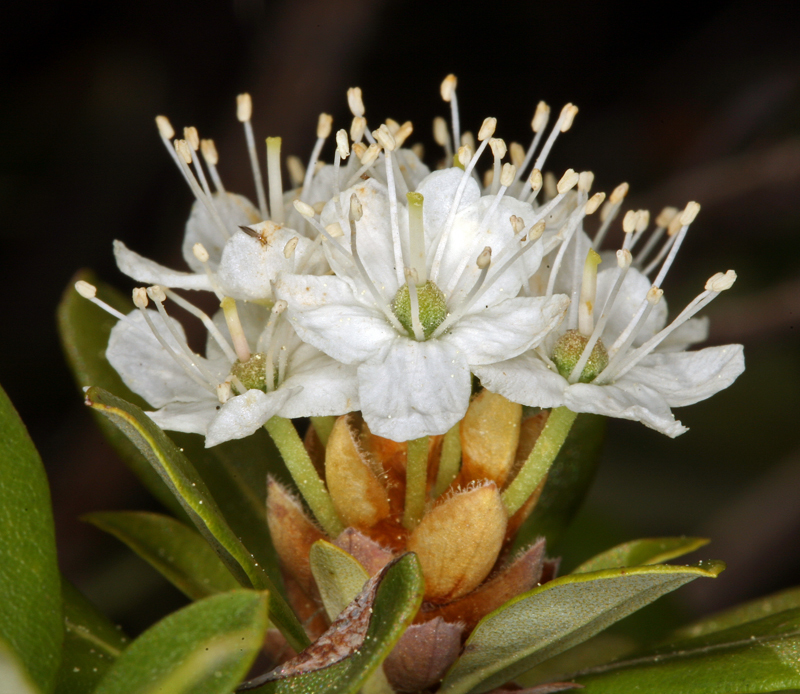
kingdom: Plantae
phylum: Tracheophyta
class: Magnoliopsida
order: Ericales
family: Ericaceae
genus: Rhododendron
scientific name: Rhododendron columbianum
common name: Western labrador tea
